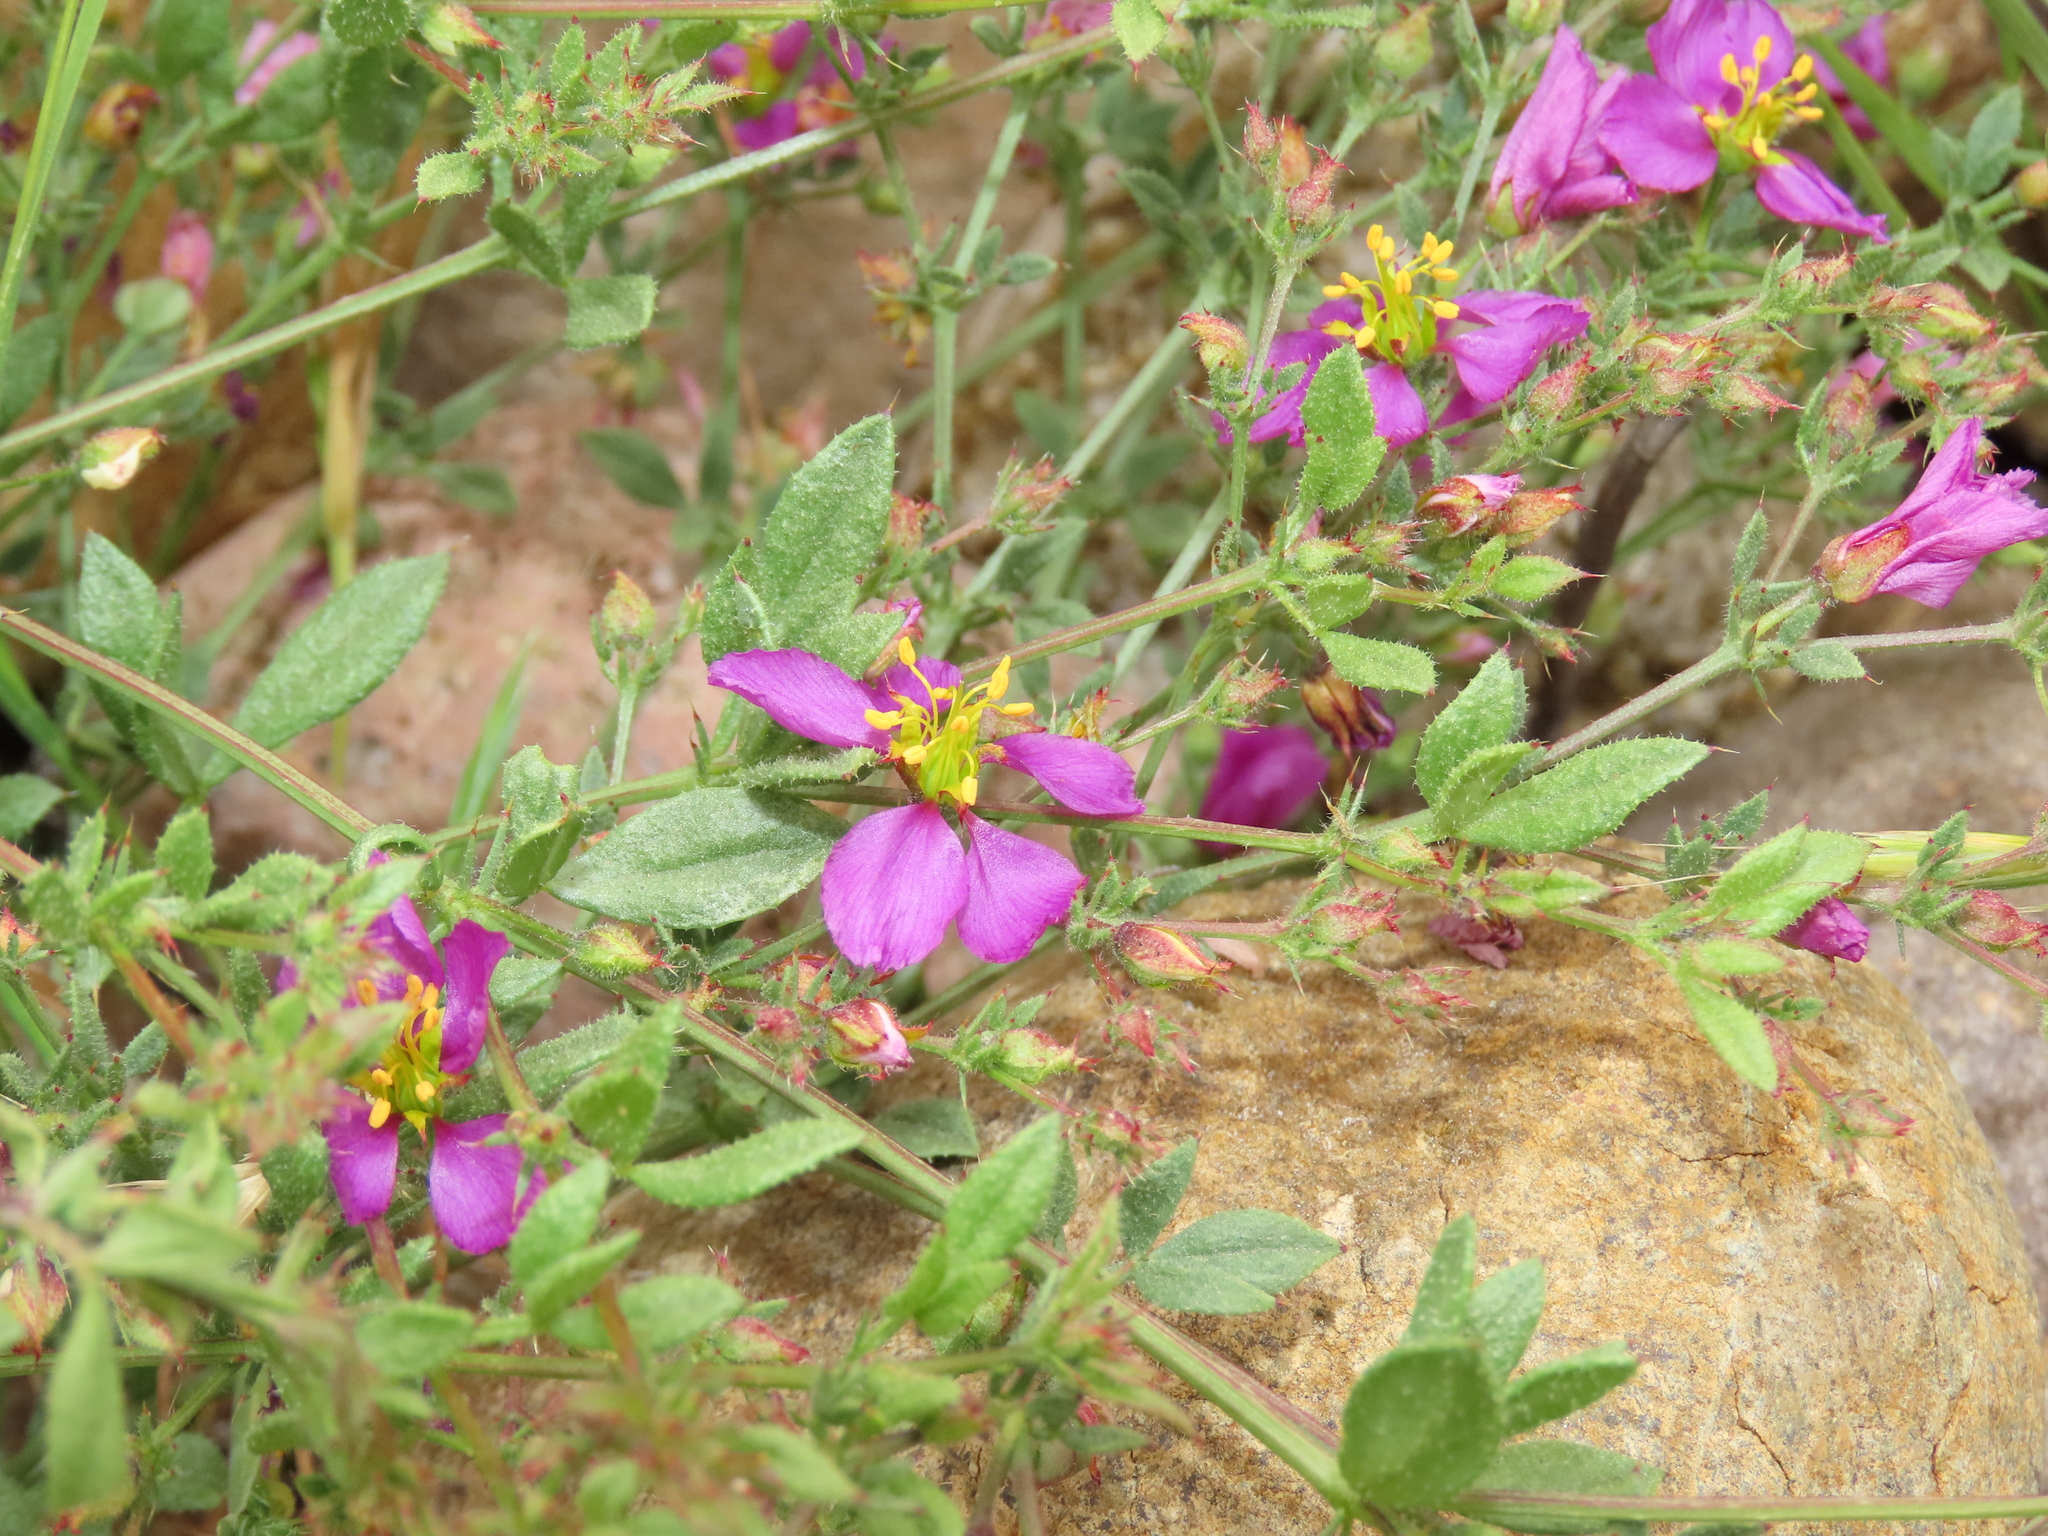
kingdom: Plantae
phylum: Tracheophyta
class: Magnoliopsida
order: Zygophyllales
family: Zygophyllaceae
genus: Fagonia
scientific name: Fagonia chilensis
